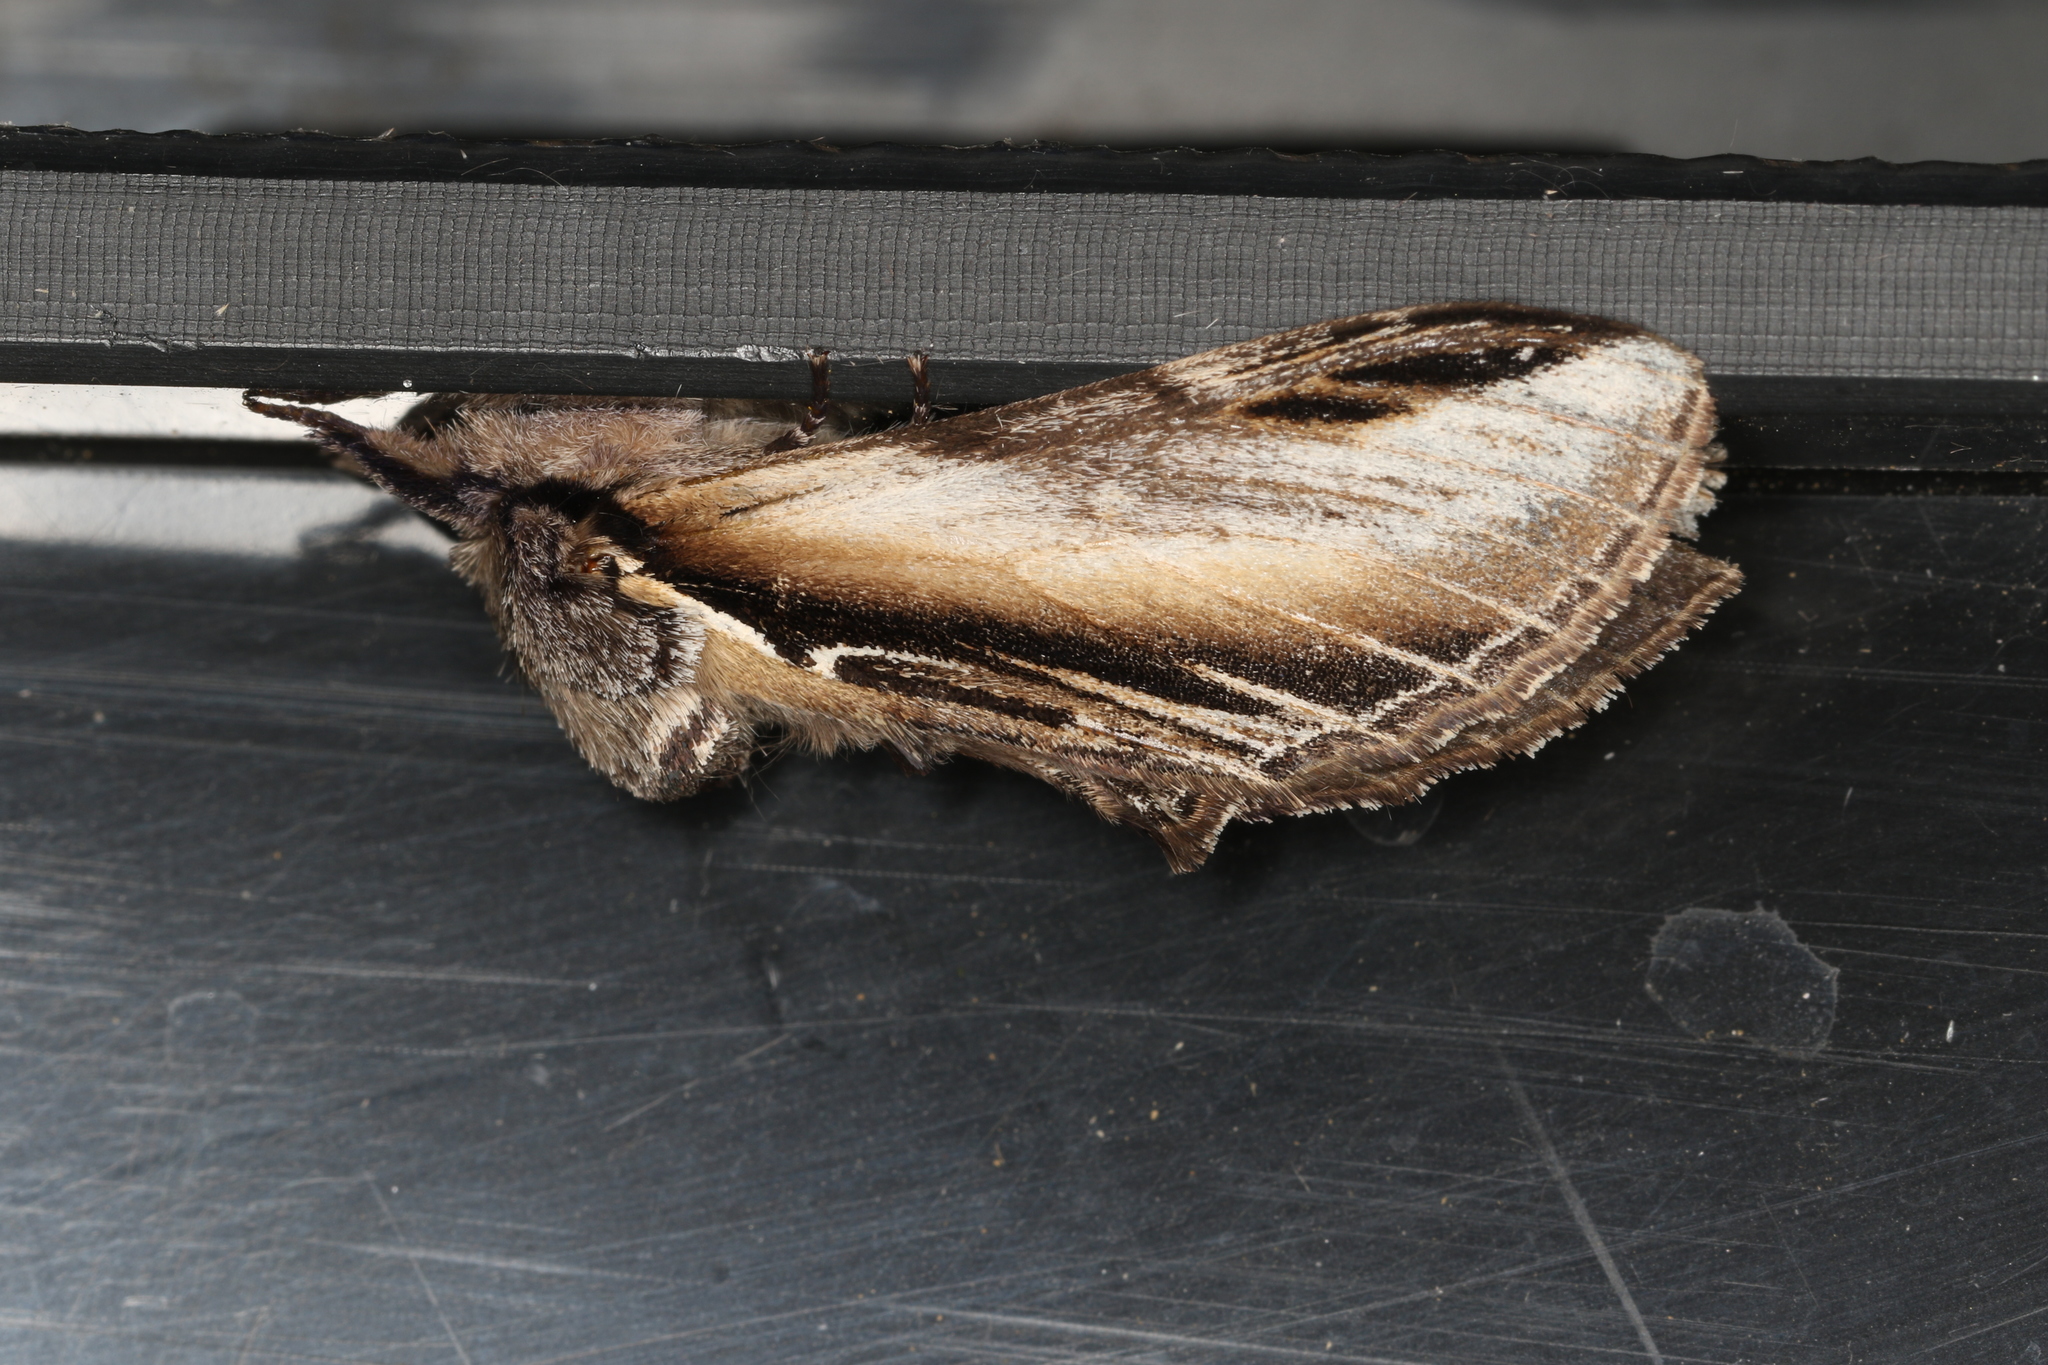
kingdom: Animalia
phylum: Arthropoda
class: Insecta
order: Lepidoptera
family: Notodontidae
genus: Pheosia
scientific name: Pheosia tremula
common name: Swallow prominent
